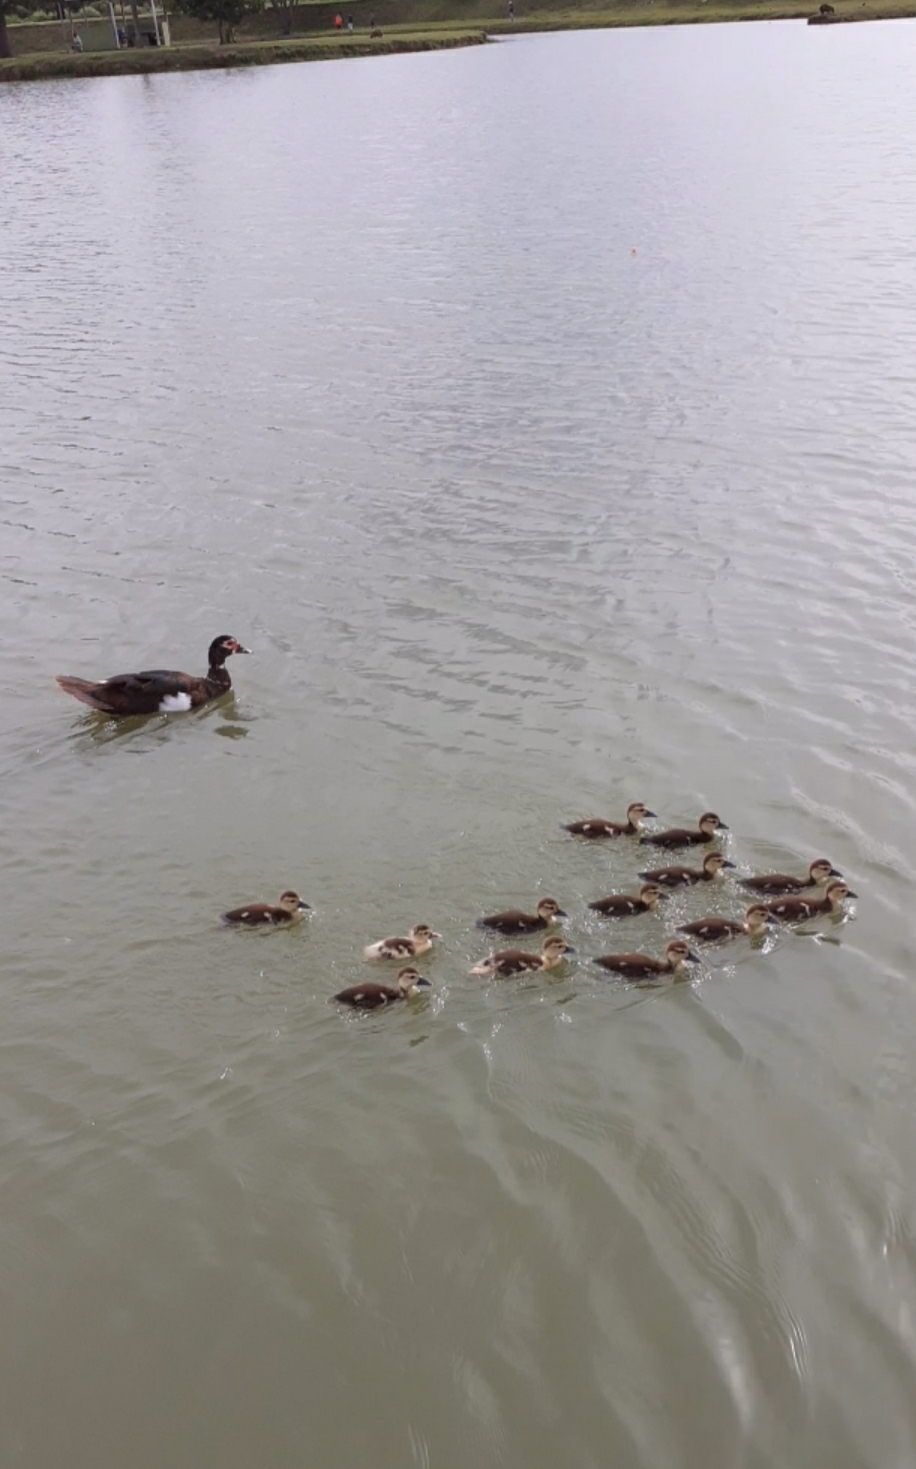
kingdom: Animalia
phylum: Chordata
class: Aves
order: Anseriformes
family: Anatidae
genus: Cairina
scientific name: Cairina moschata
